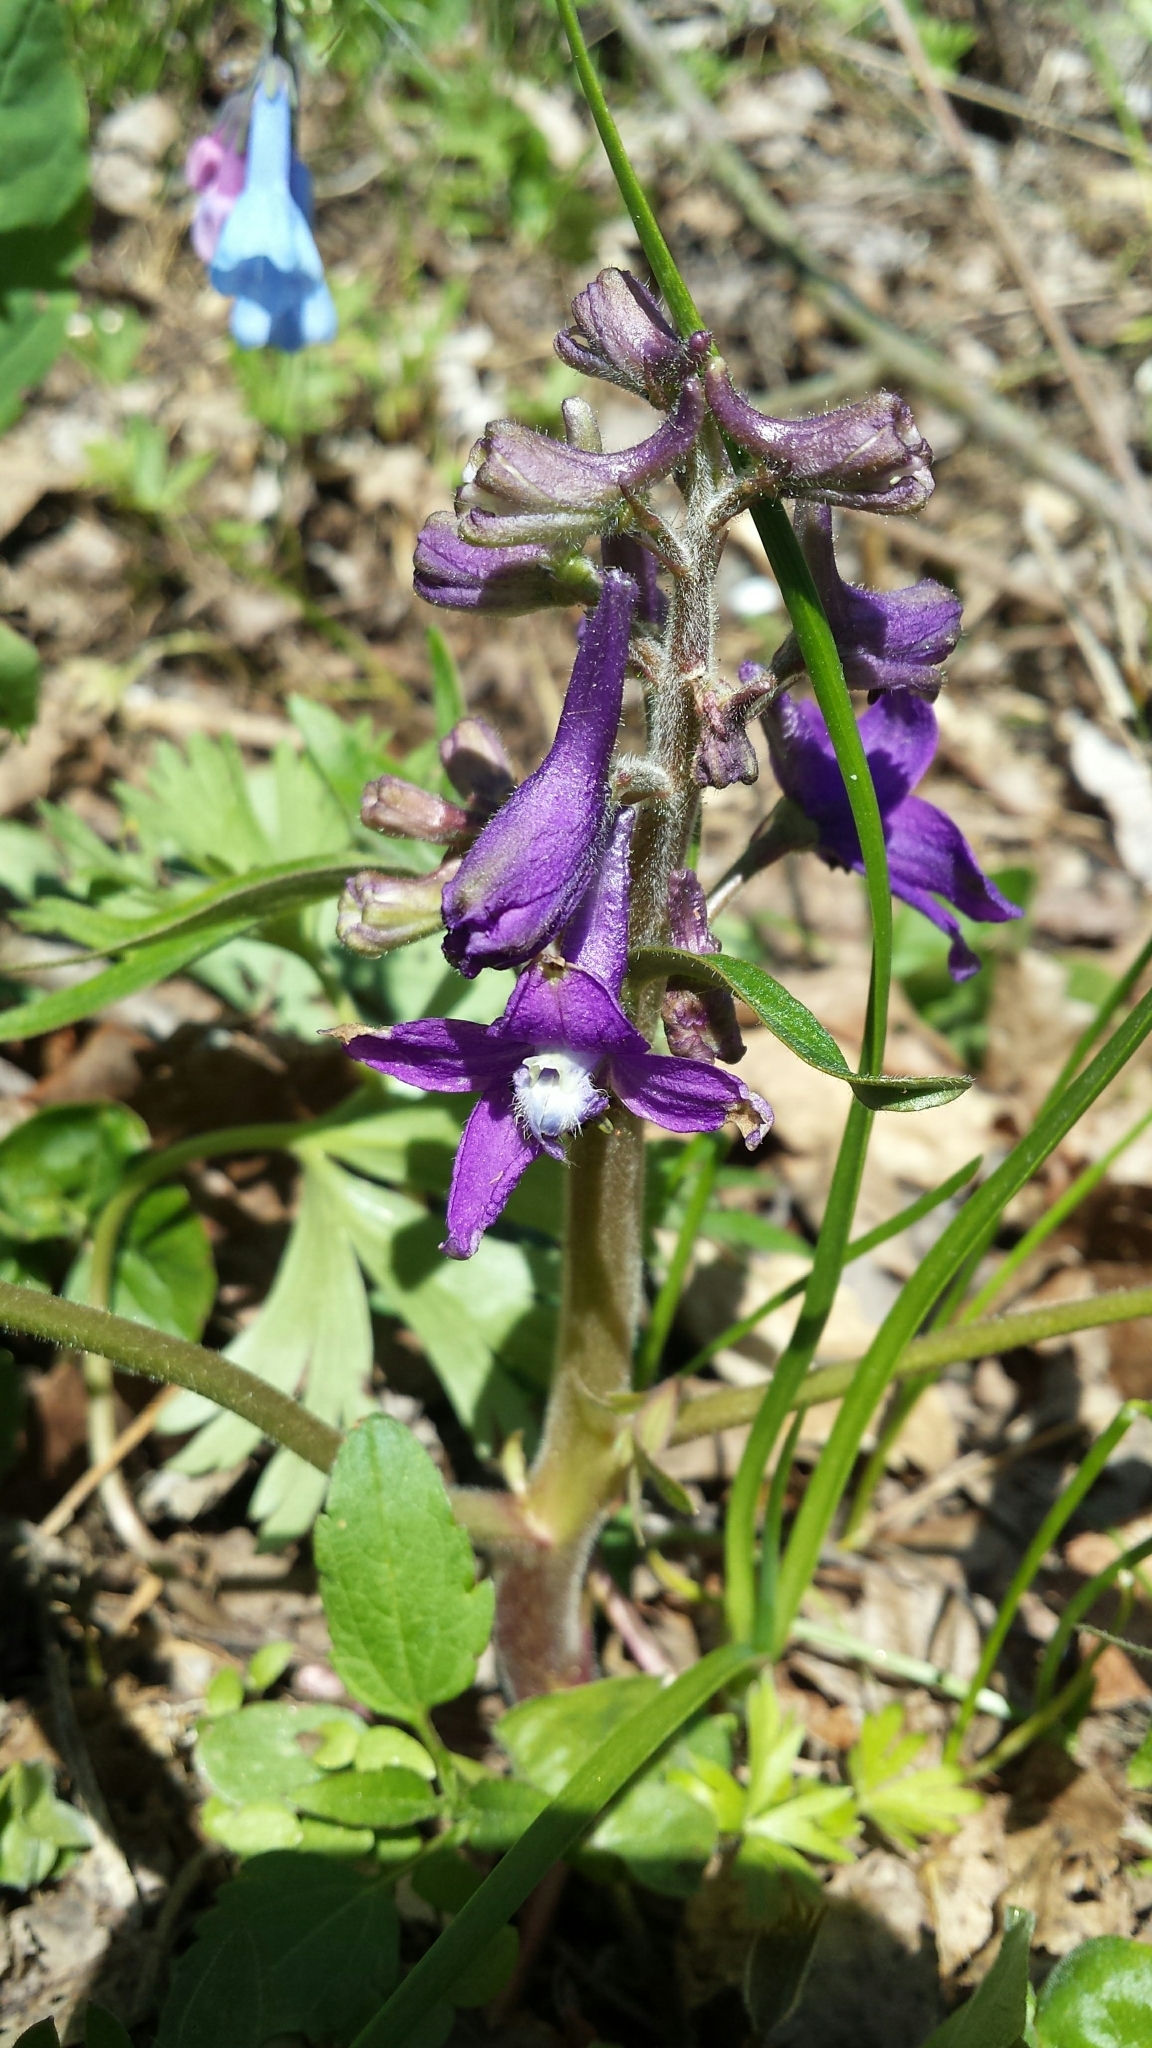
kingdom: Plantae
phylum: Tracheophyta
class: Magnoliopsida
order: Ranunculales
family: Ranunculaceae
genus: Delphinium
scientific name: Delphinium tricorne
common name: Dwarf larkspur
